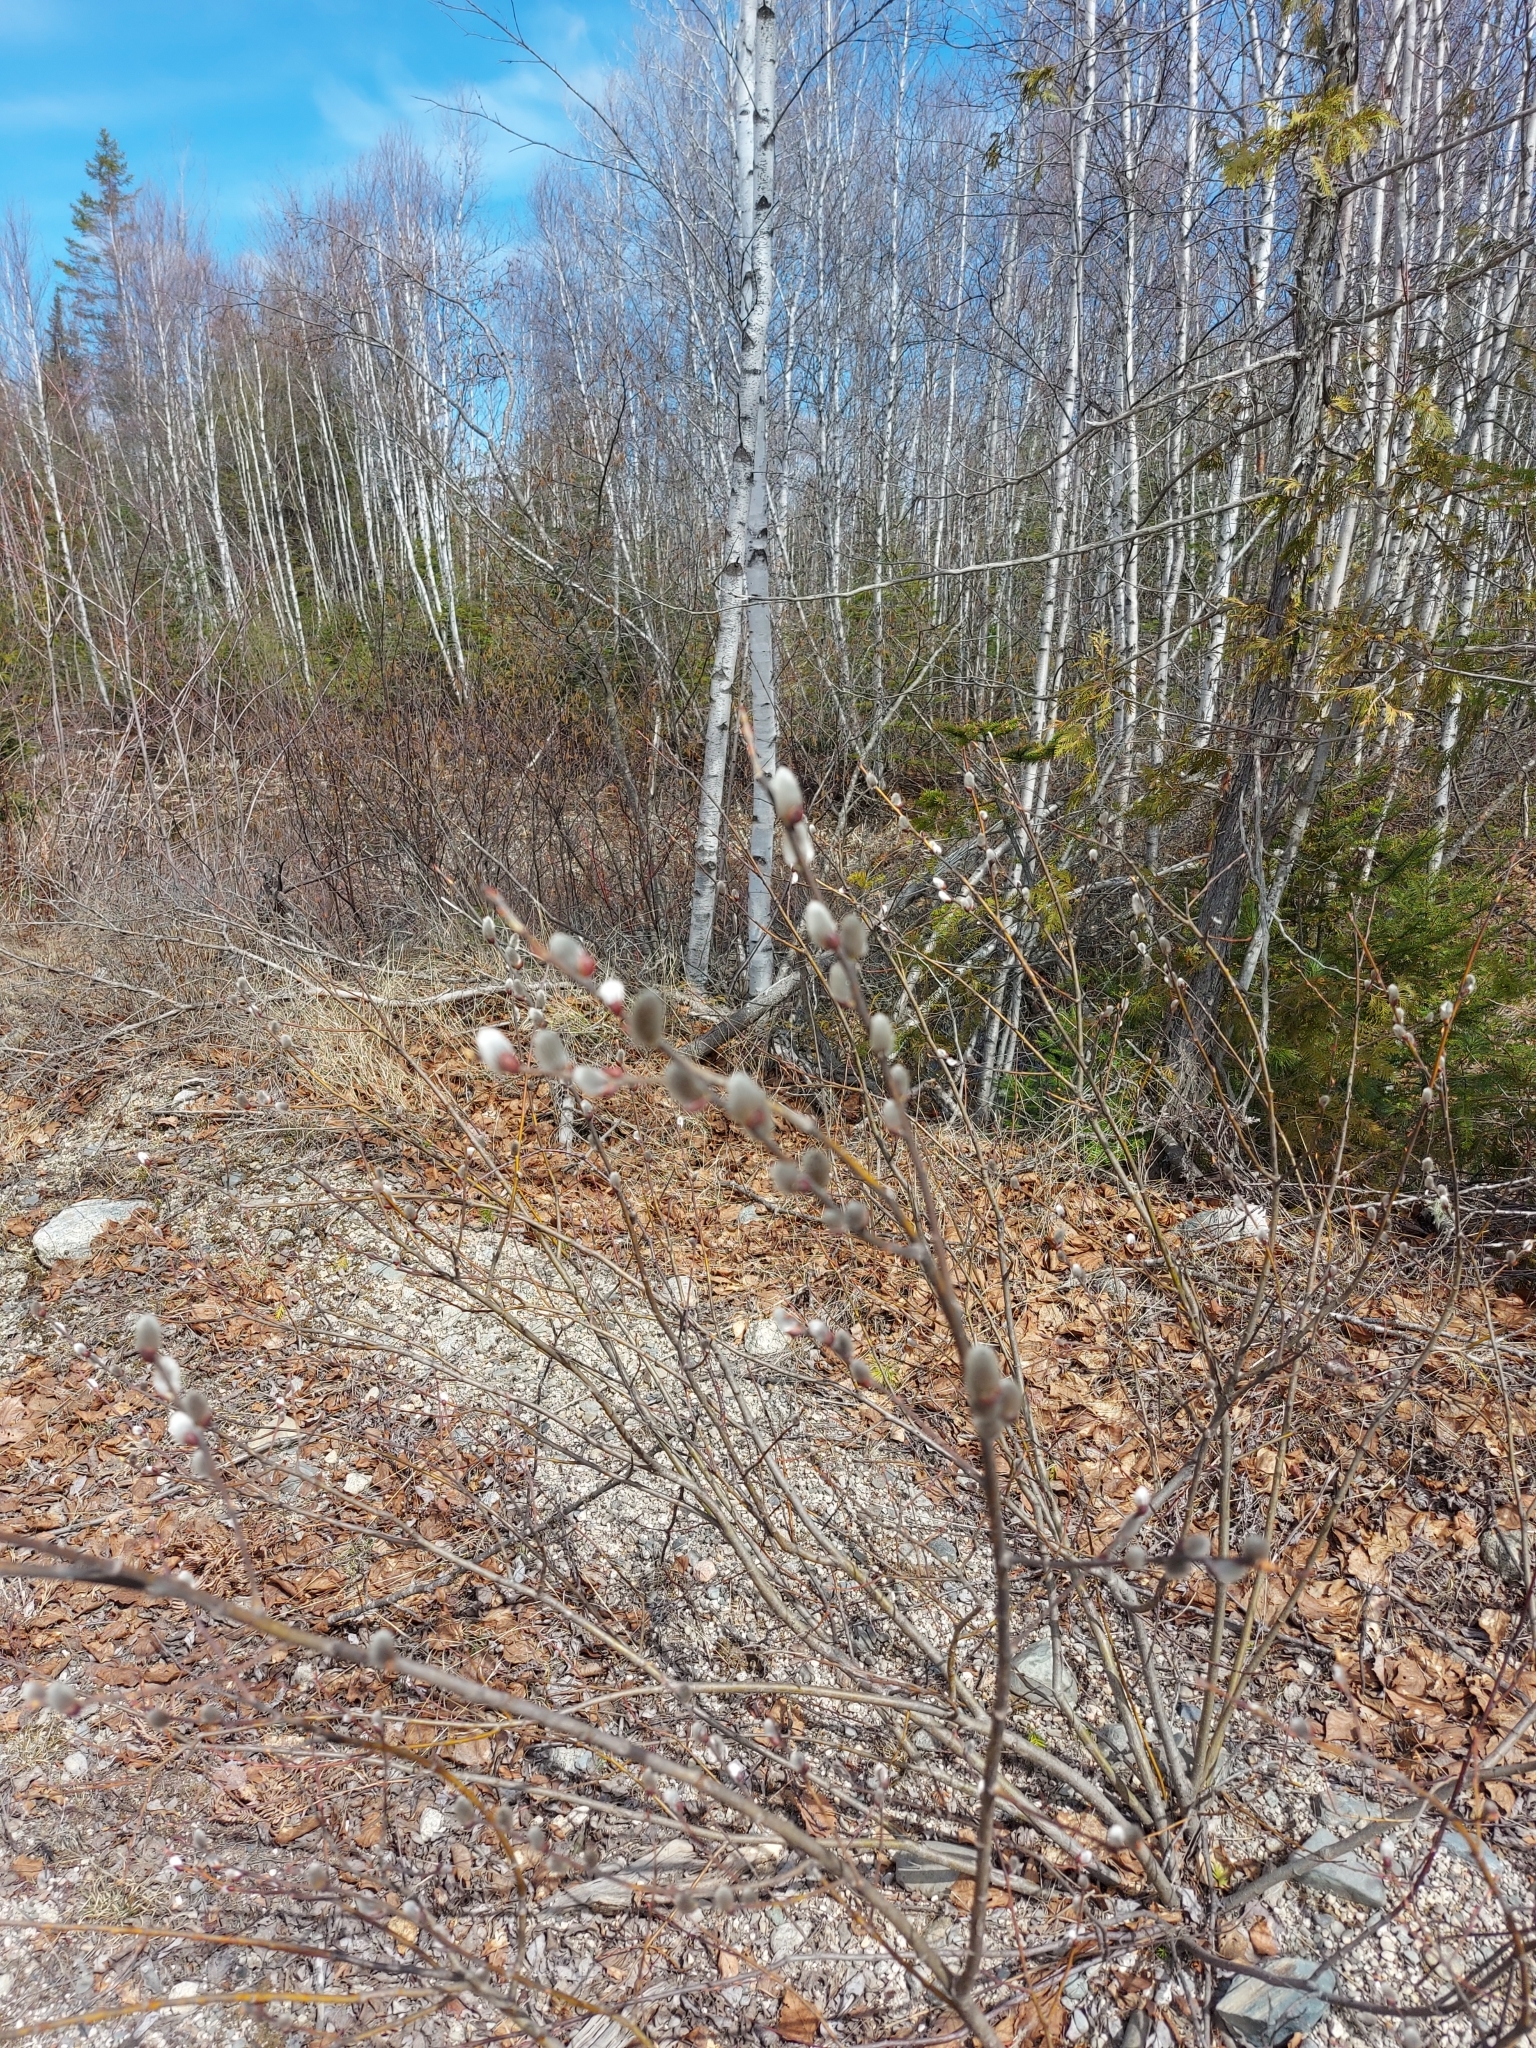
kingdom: Plantae
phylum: Tracheophyta
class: Magnoliopsida
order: Malpighiales
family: Salicaceae
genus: Salix
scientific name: Salix discolor
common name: Glaucous willow
